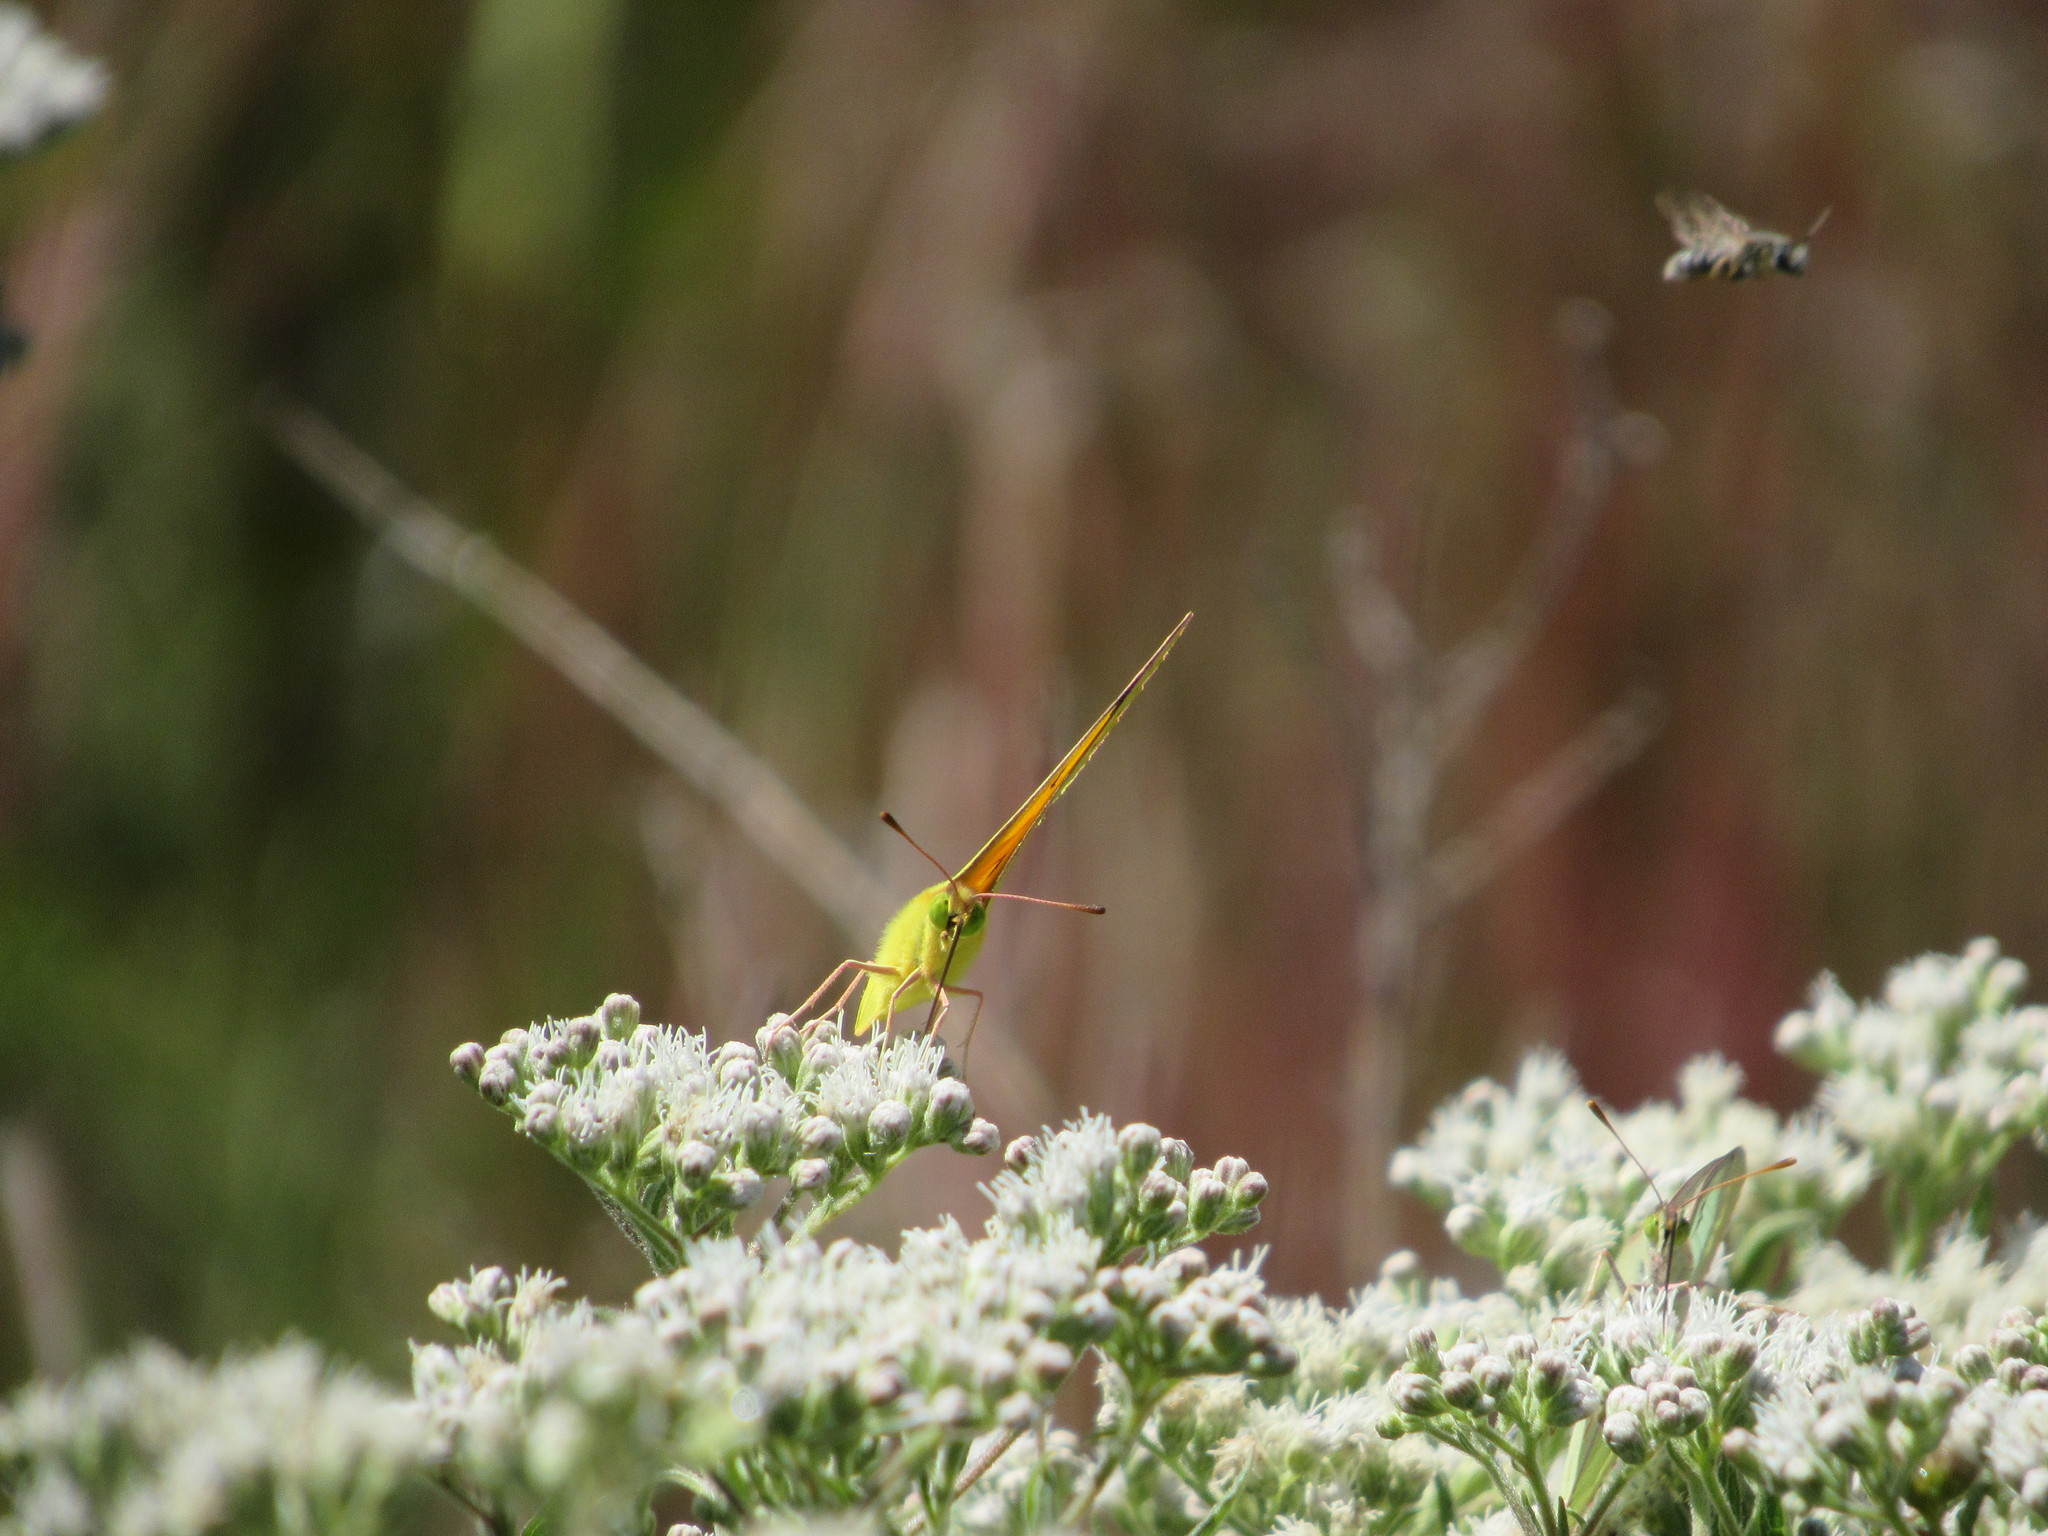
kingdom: Animalia
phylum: Arthropoda
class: Insecta
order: Lepidoptera
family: Pieridae
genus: Colias
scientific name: Colias eurytheme
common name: Alfalfa butterfly
